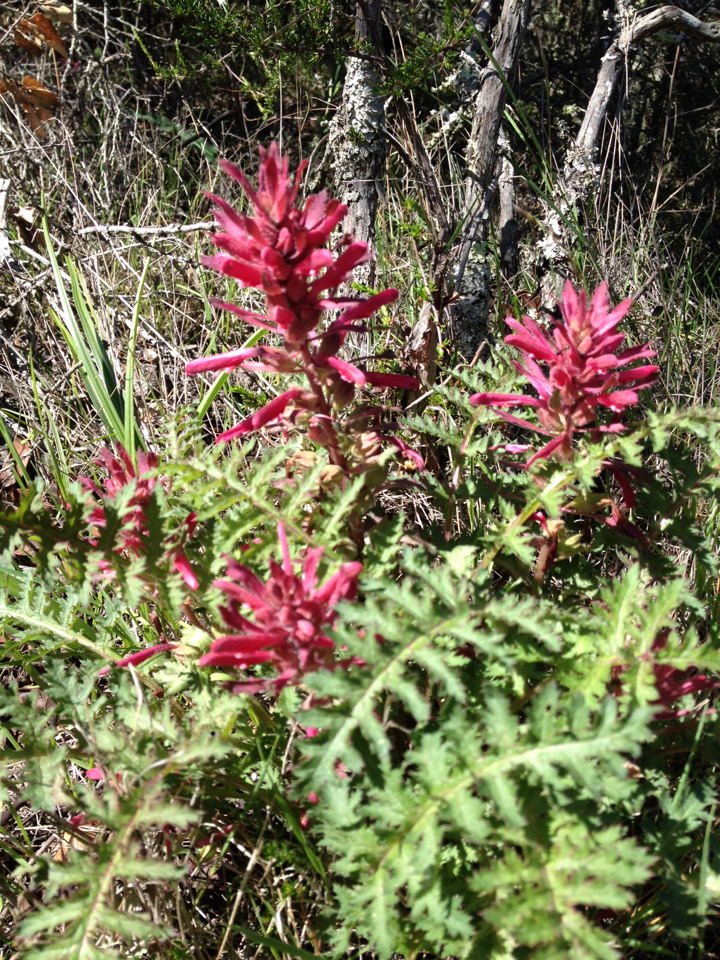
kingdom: Plantae
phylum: Tracheophyta
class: Magnoliopsida
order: Lamiales
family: Orobanchaceae
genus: Pedicularis
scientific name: Pedicularis densiflora
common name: Indian warrior
